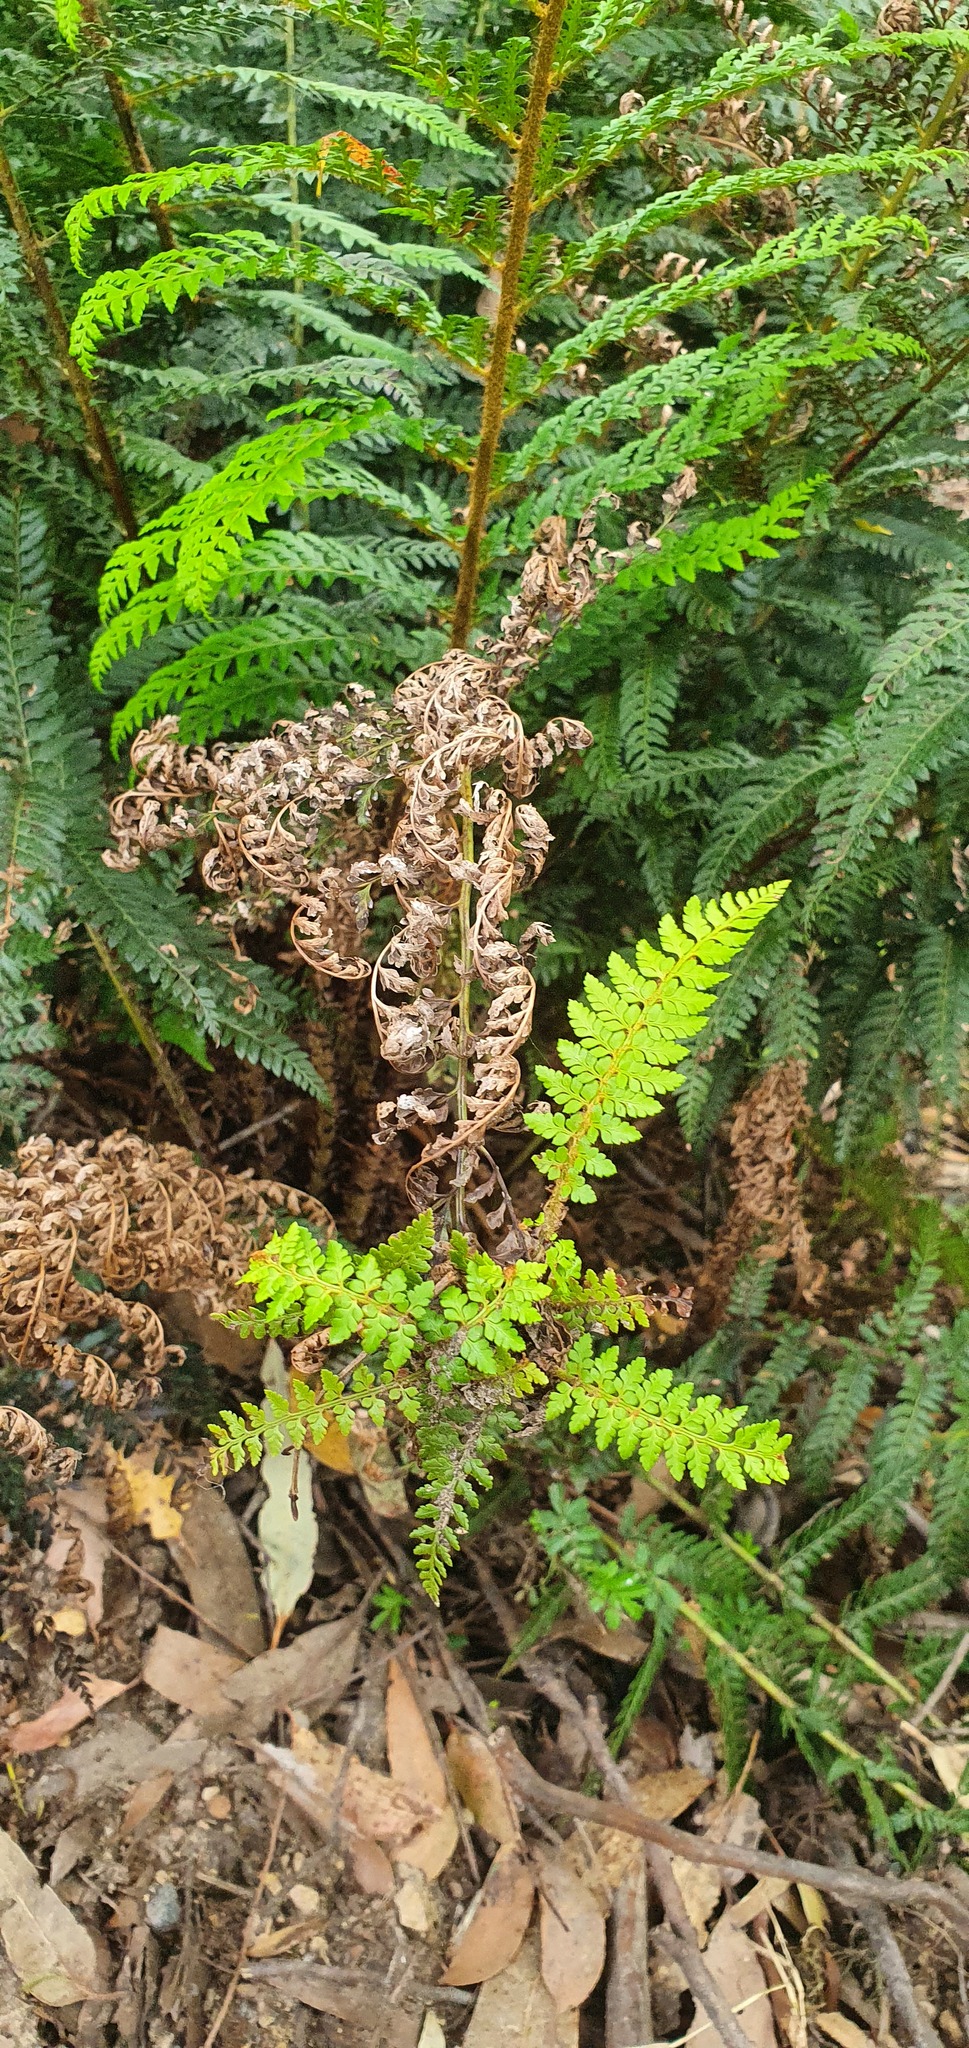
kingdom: Plantae
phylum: Tracheophyta
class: Polypodiopsida
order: Polypodiales
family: Dryopteridaceae
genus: Polystichum
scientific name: Polystichum proliferum
